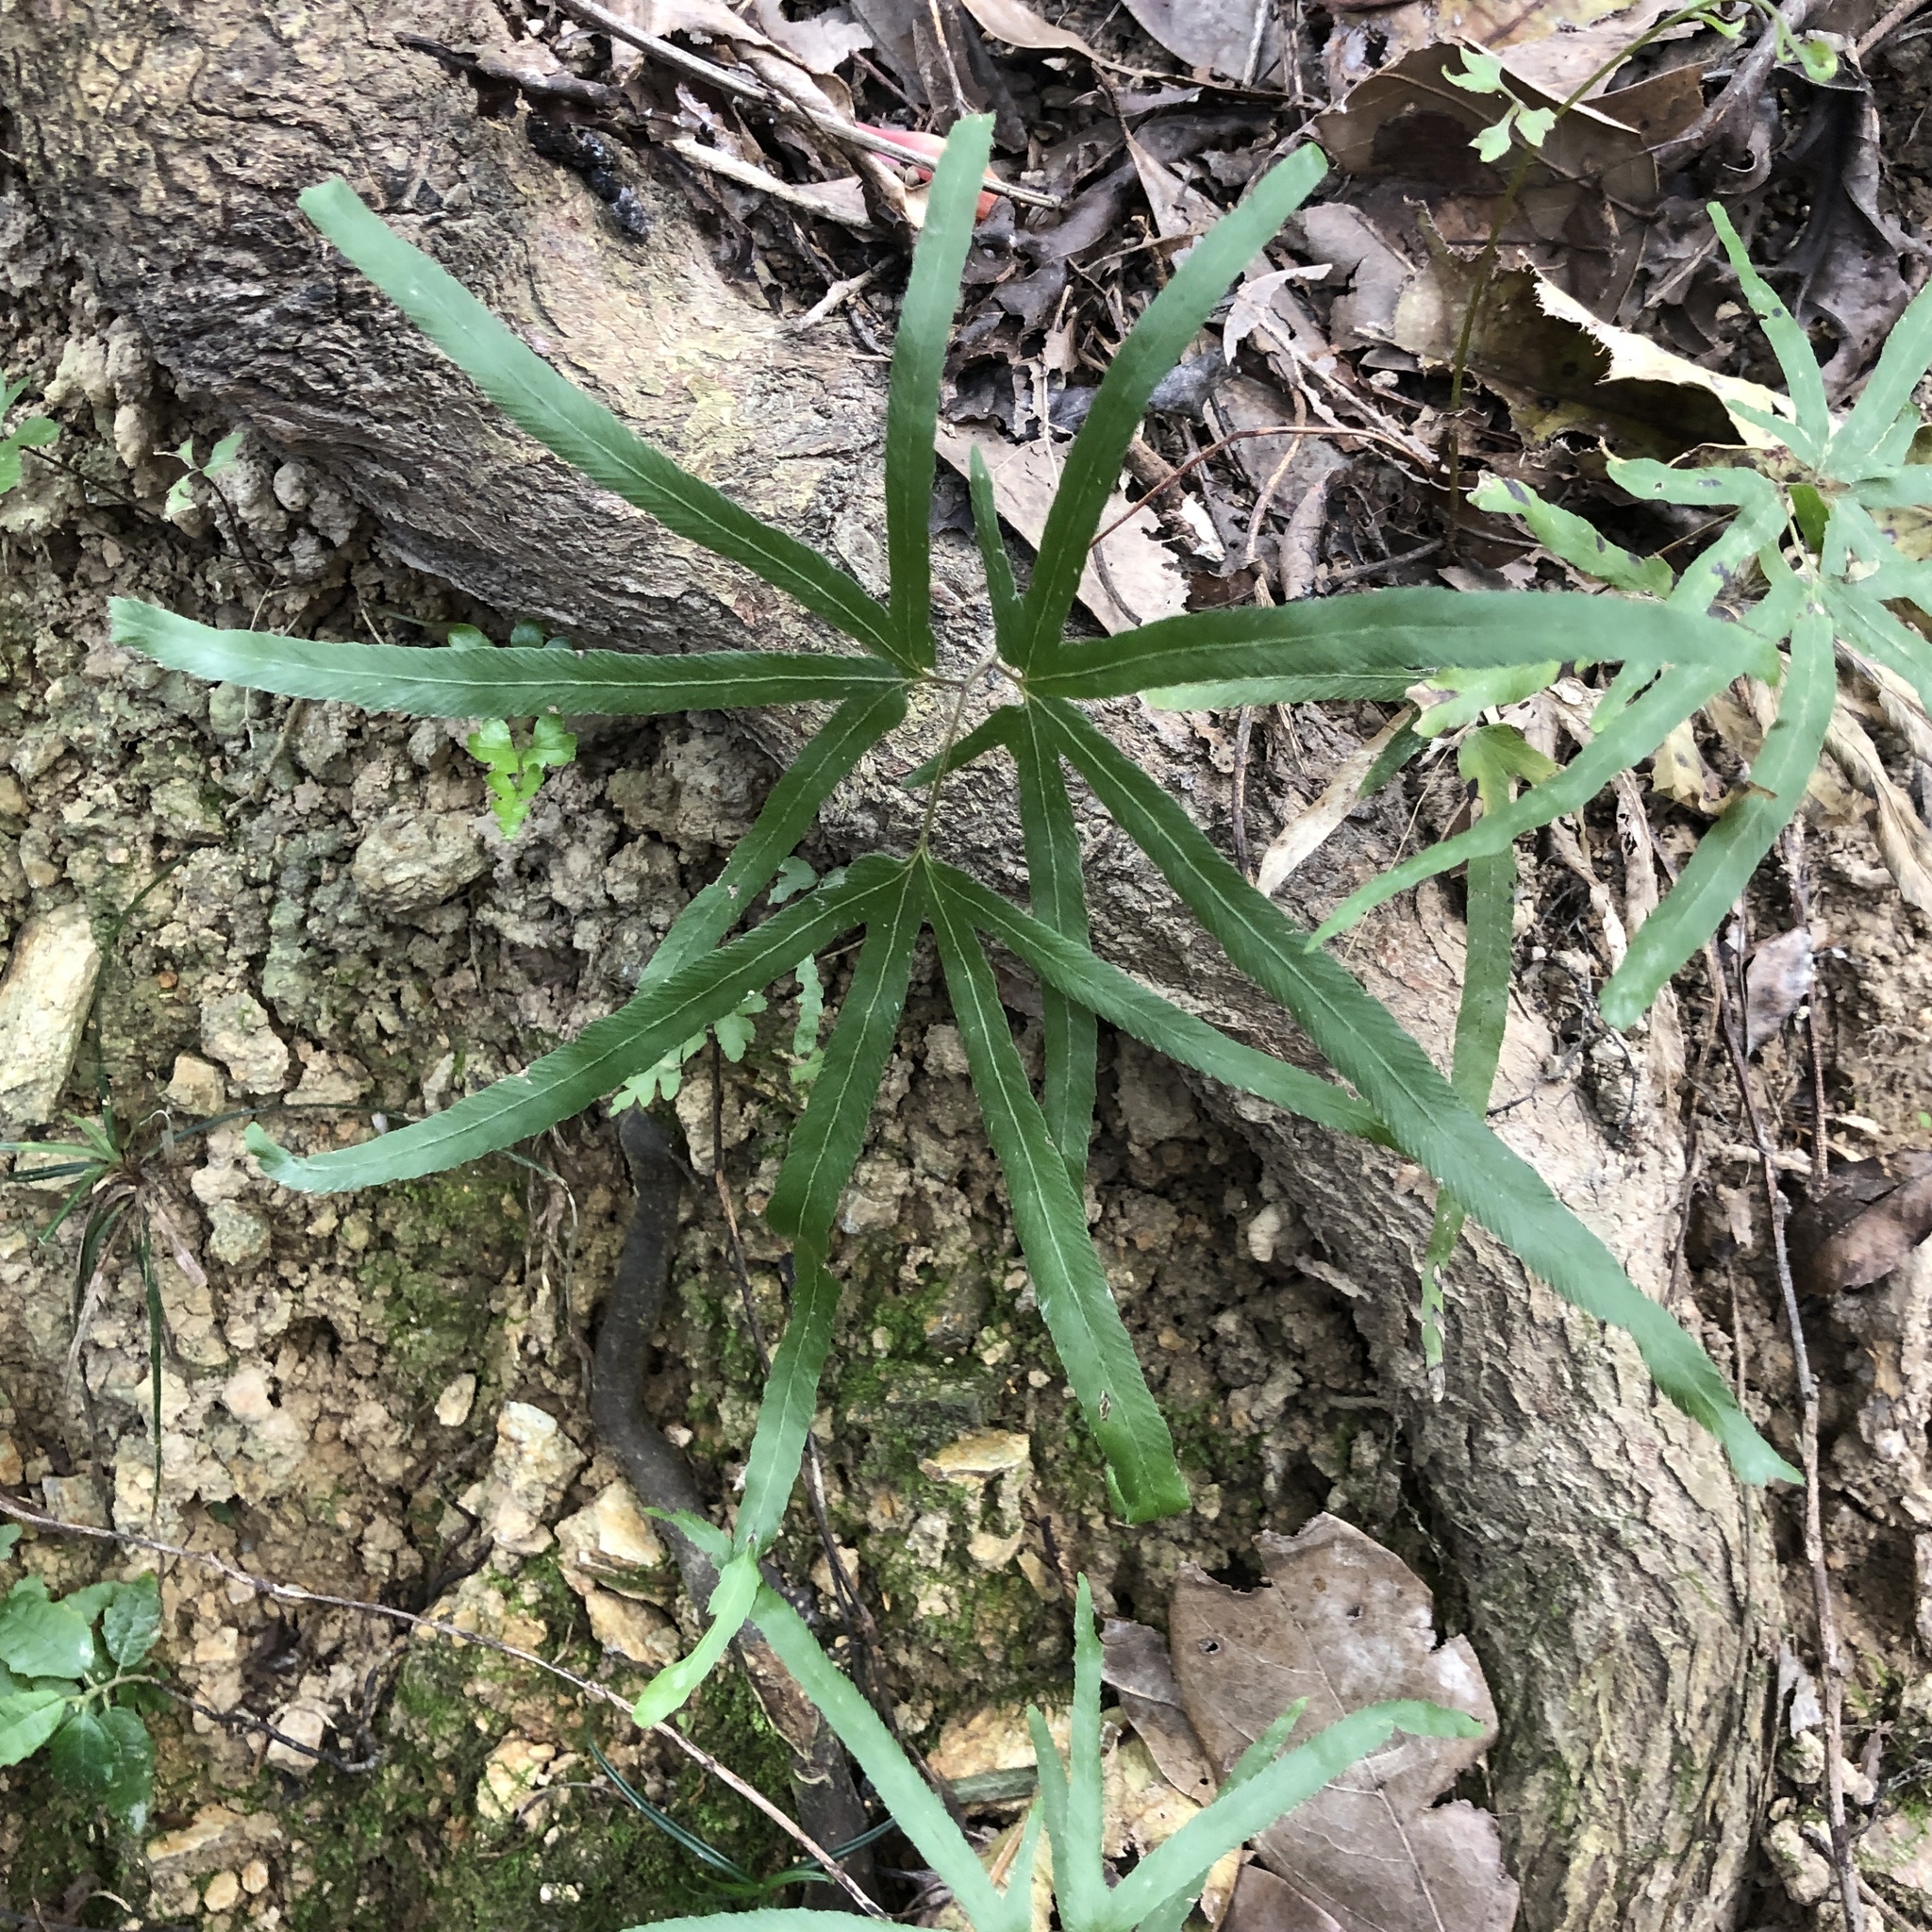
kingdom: Plantae
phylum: Tracheophyta
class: Polypodiopsida
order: Schizaeales
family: Lygodiaceae
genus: Lygodium
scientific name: Lygodium japonicum
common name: Japanese climbing fern
